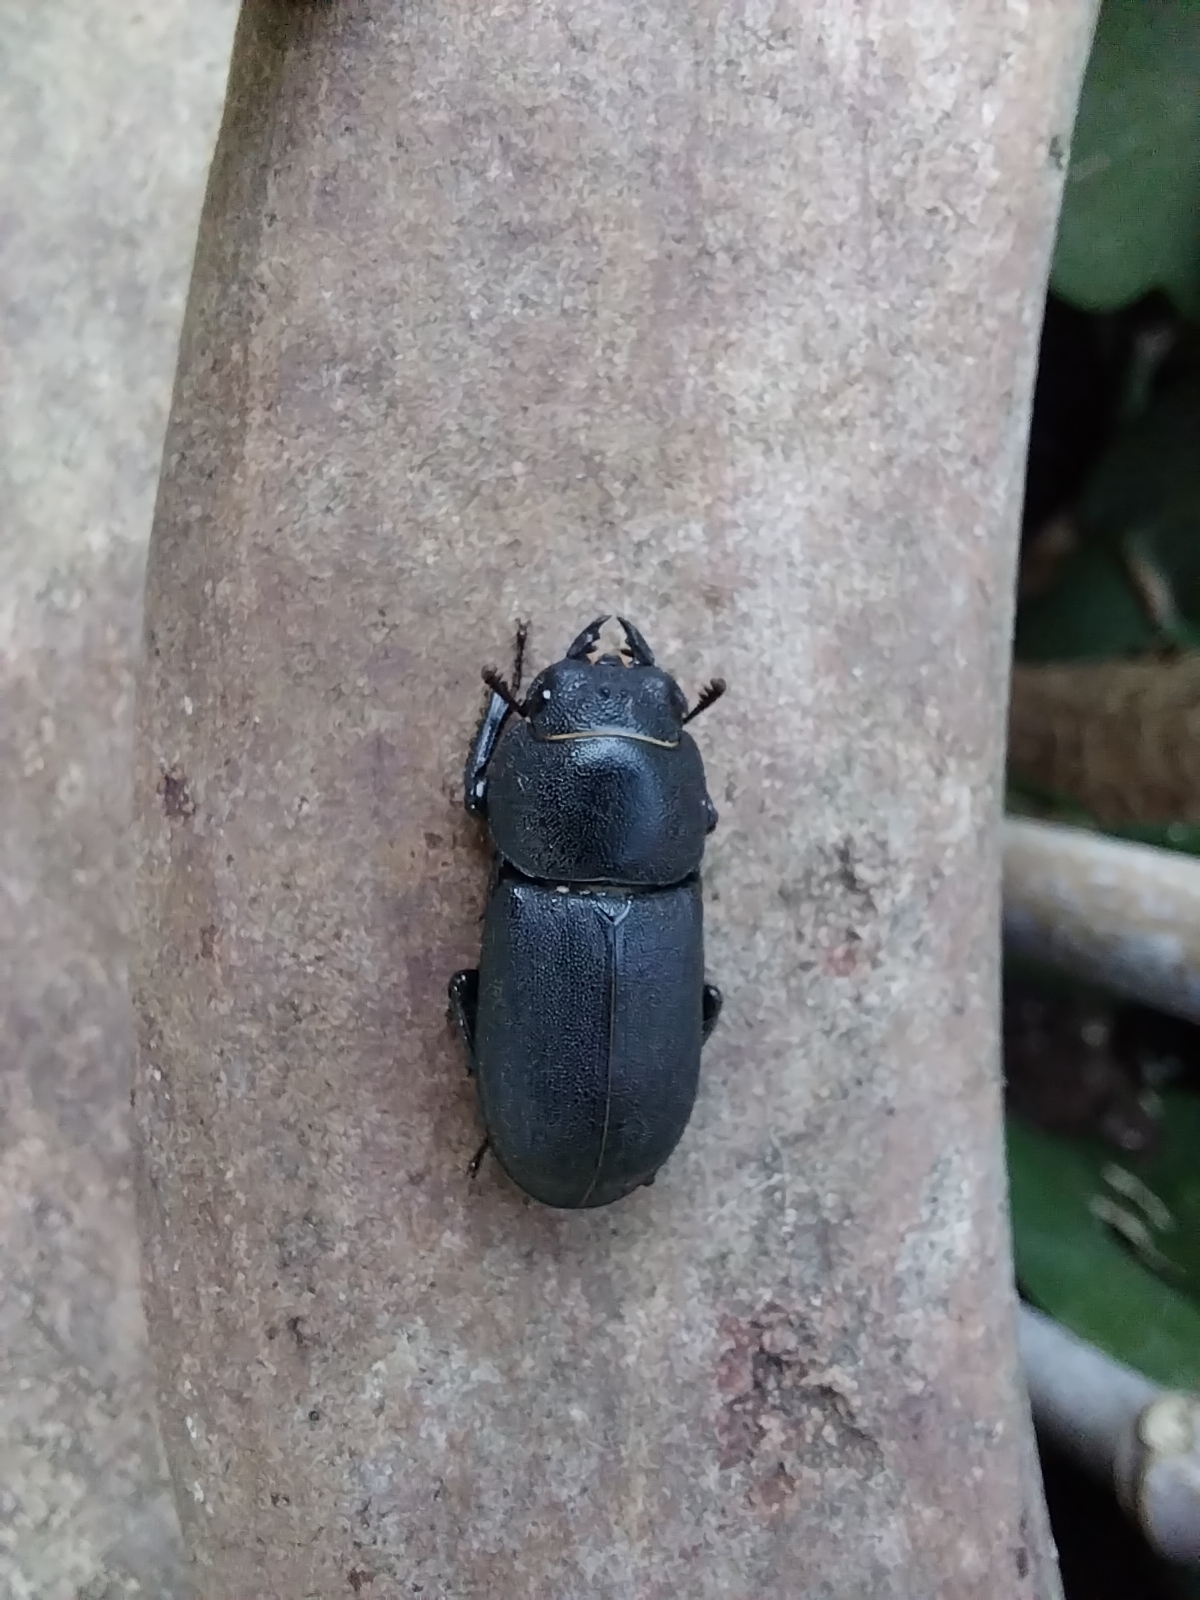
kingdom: Animalia
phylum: Arthropoda
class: Insecta
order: Coleoptera
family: Lucanidae
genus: Dorcus
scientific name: Dorcus parallelipipedus
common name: Lesser stag beetle
